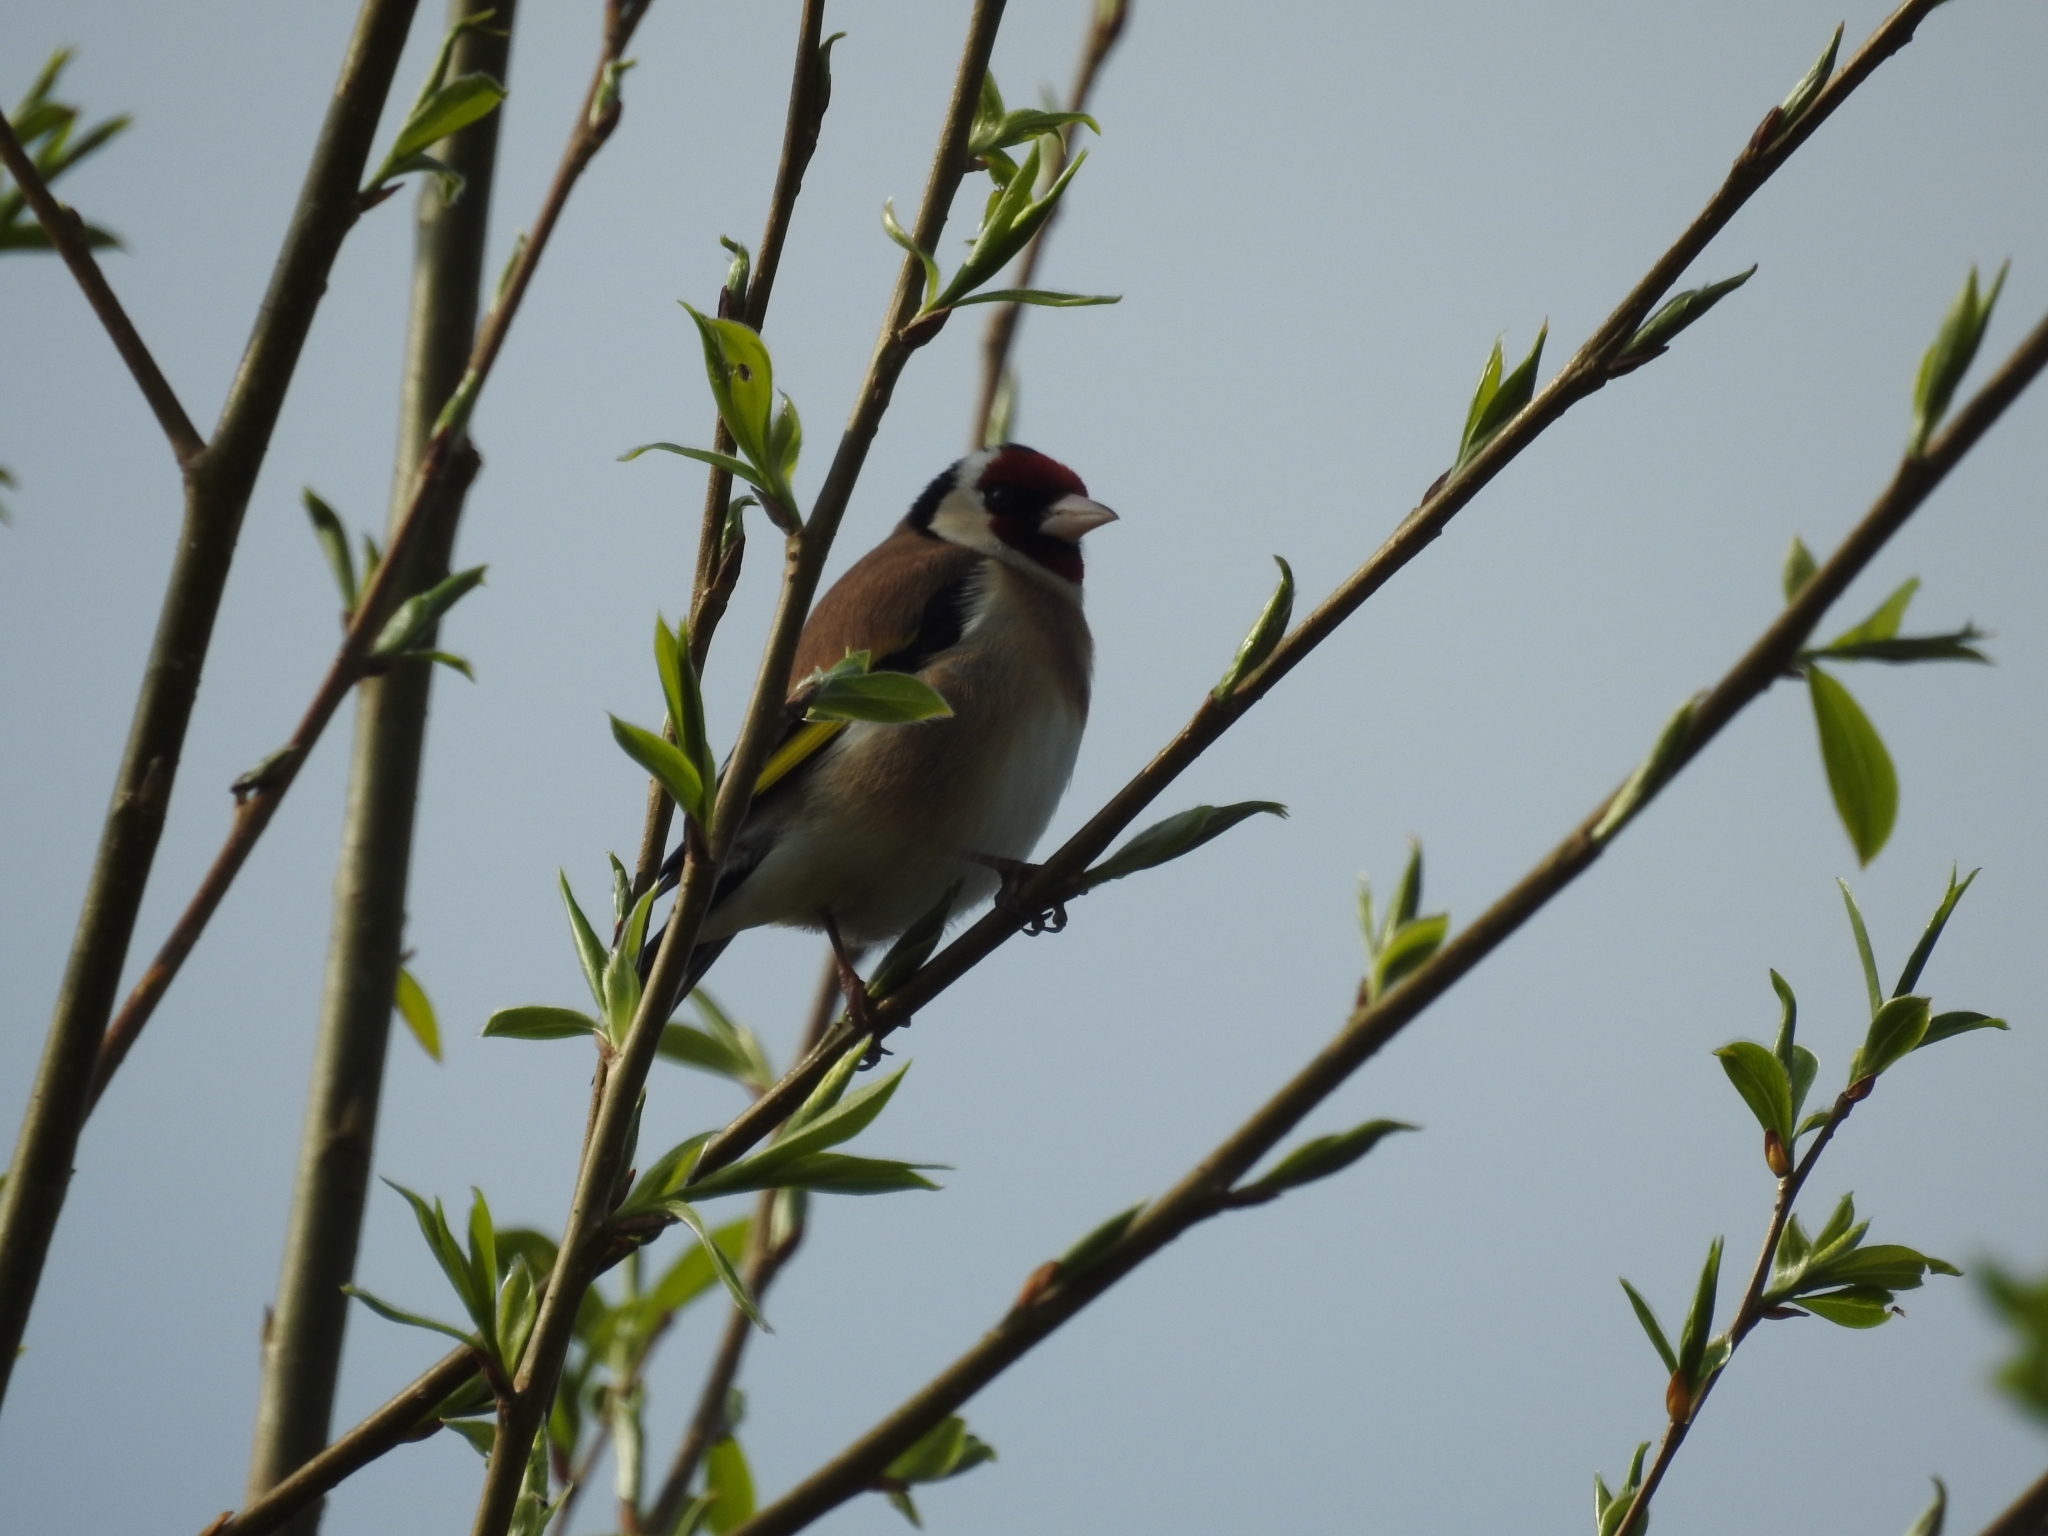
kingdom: Animalia
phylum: Chordata
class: Aves
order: Passeriformes
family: Fringillidae
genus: Carduelis
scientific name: Carduelis carduelis
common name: European goldfinch
